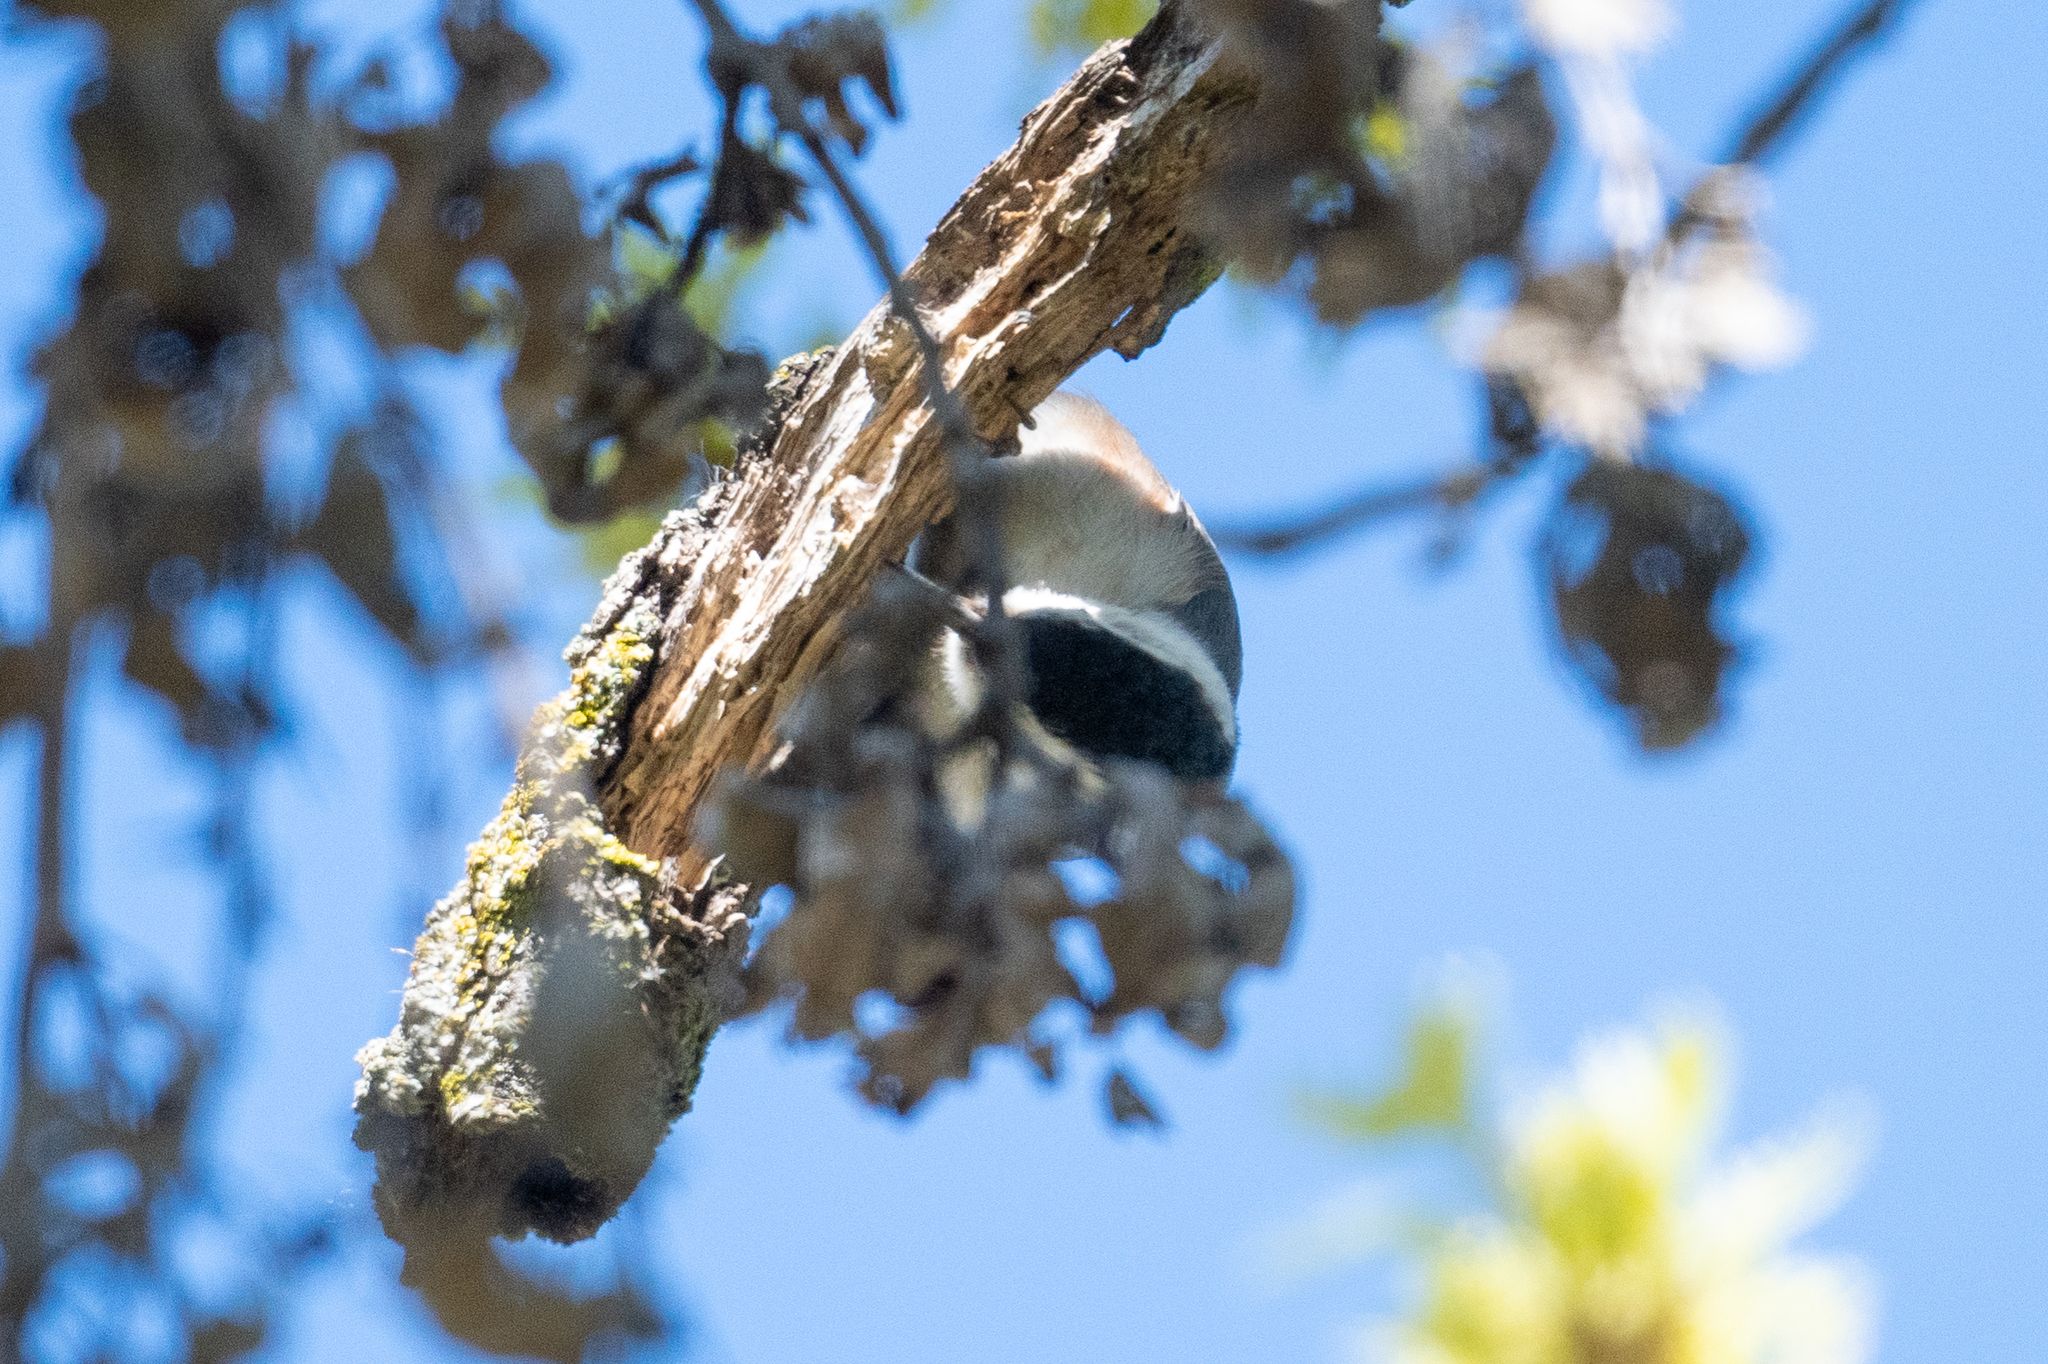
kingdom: Animalia
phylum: Chordata
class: Aves
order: Passeriformes
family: Sittidae
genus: Sitta
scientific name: Sitta carolinensis
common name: White-breasted nuthatch
